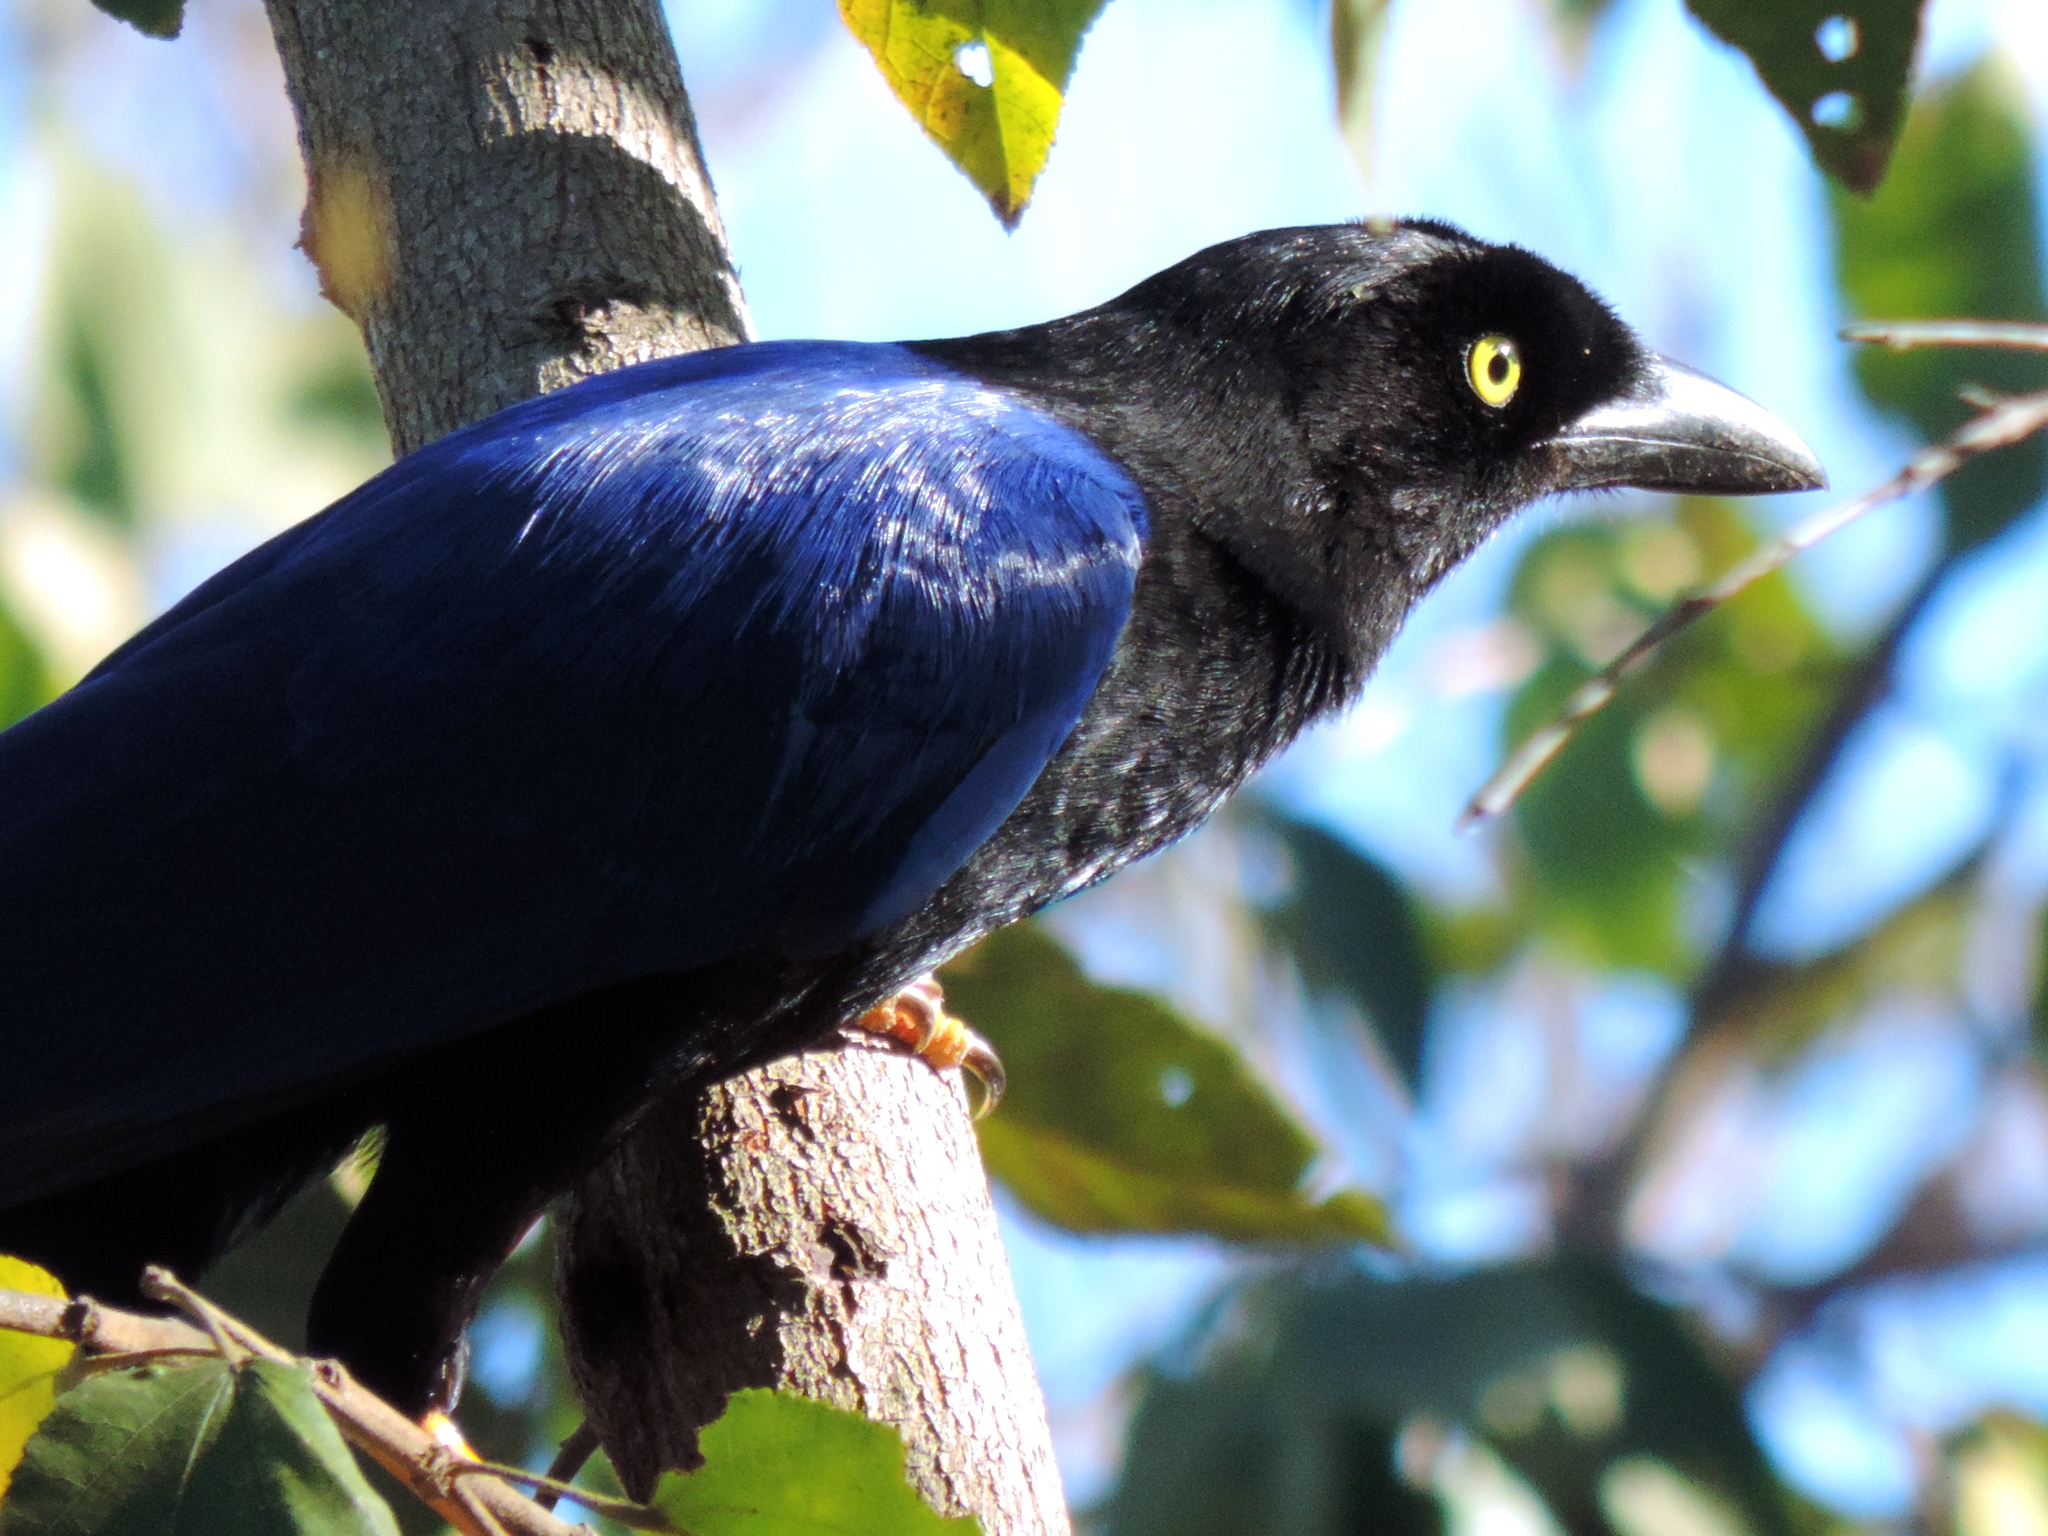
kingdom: Animalia
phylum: Chordata
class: Aves
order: Passeriformes
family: Corvidae
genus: Cyanocorax
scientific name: Cyanocorax beecheii
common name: Purplish-backed jay
